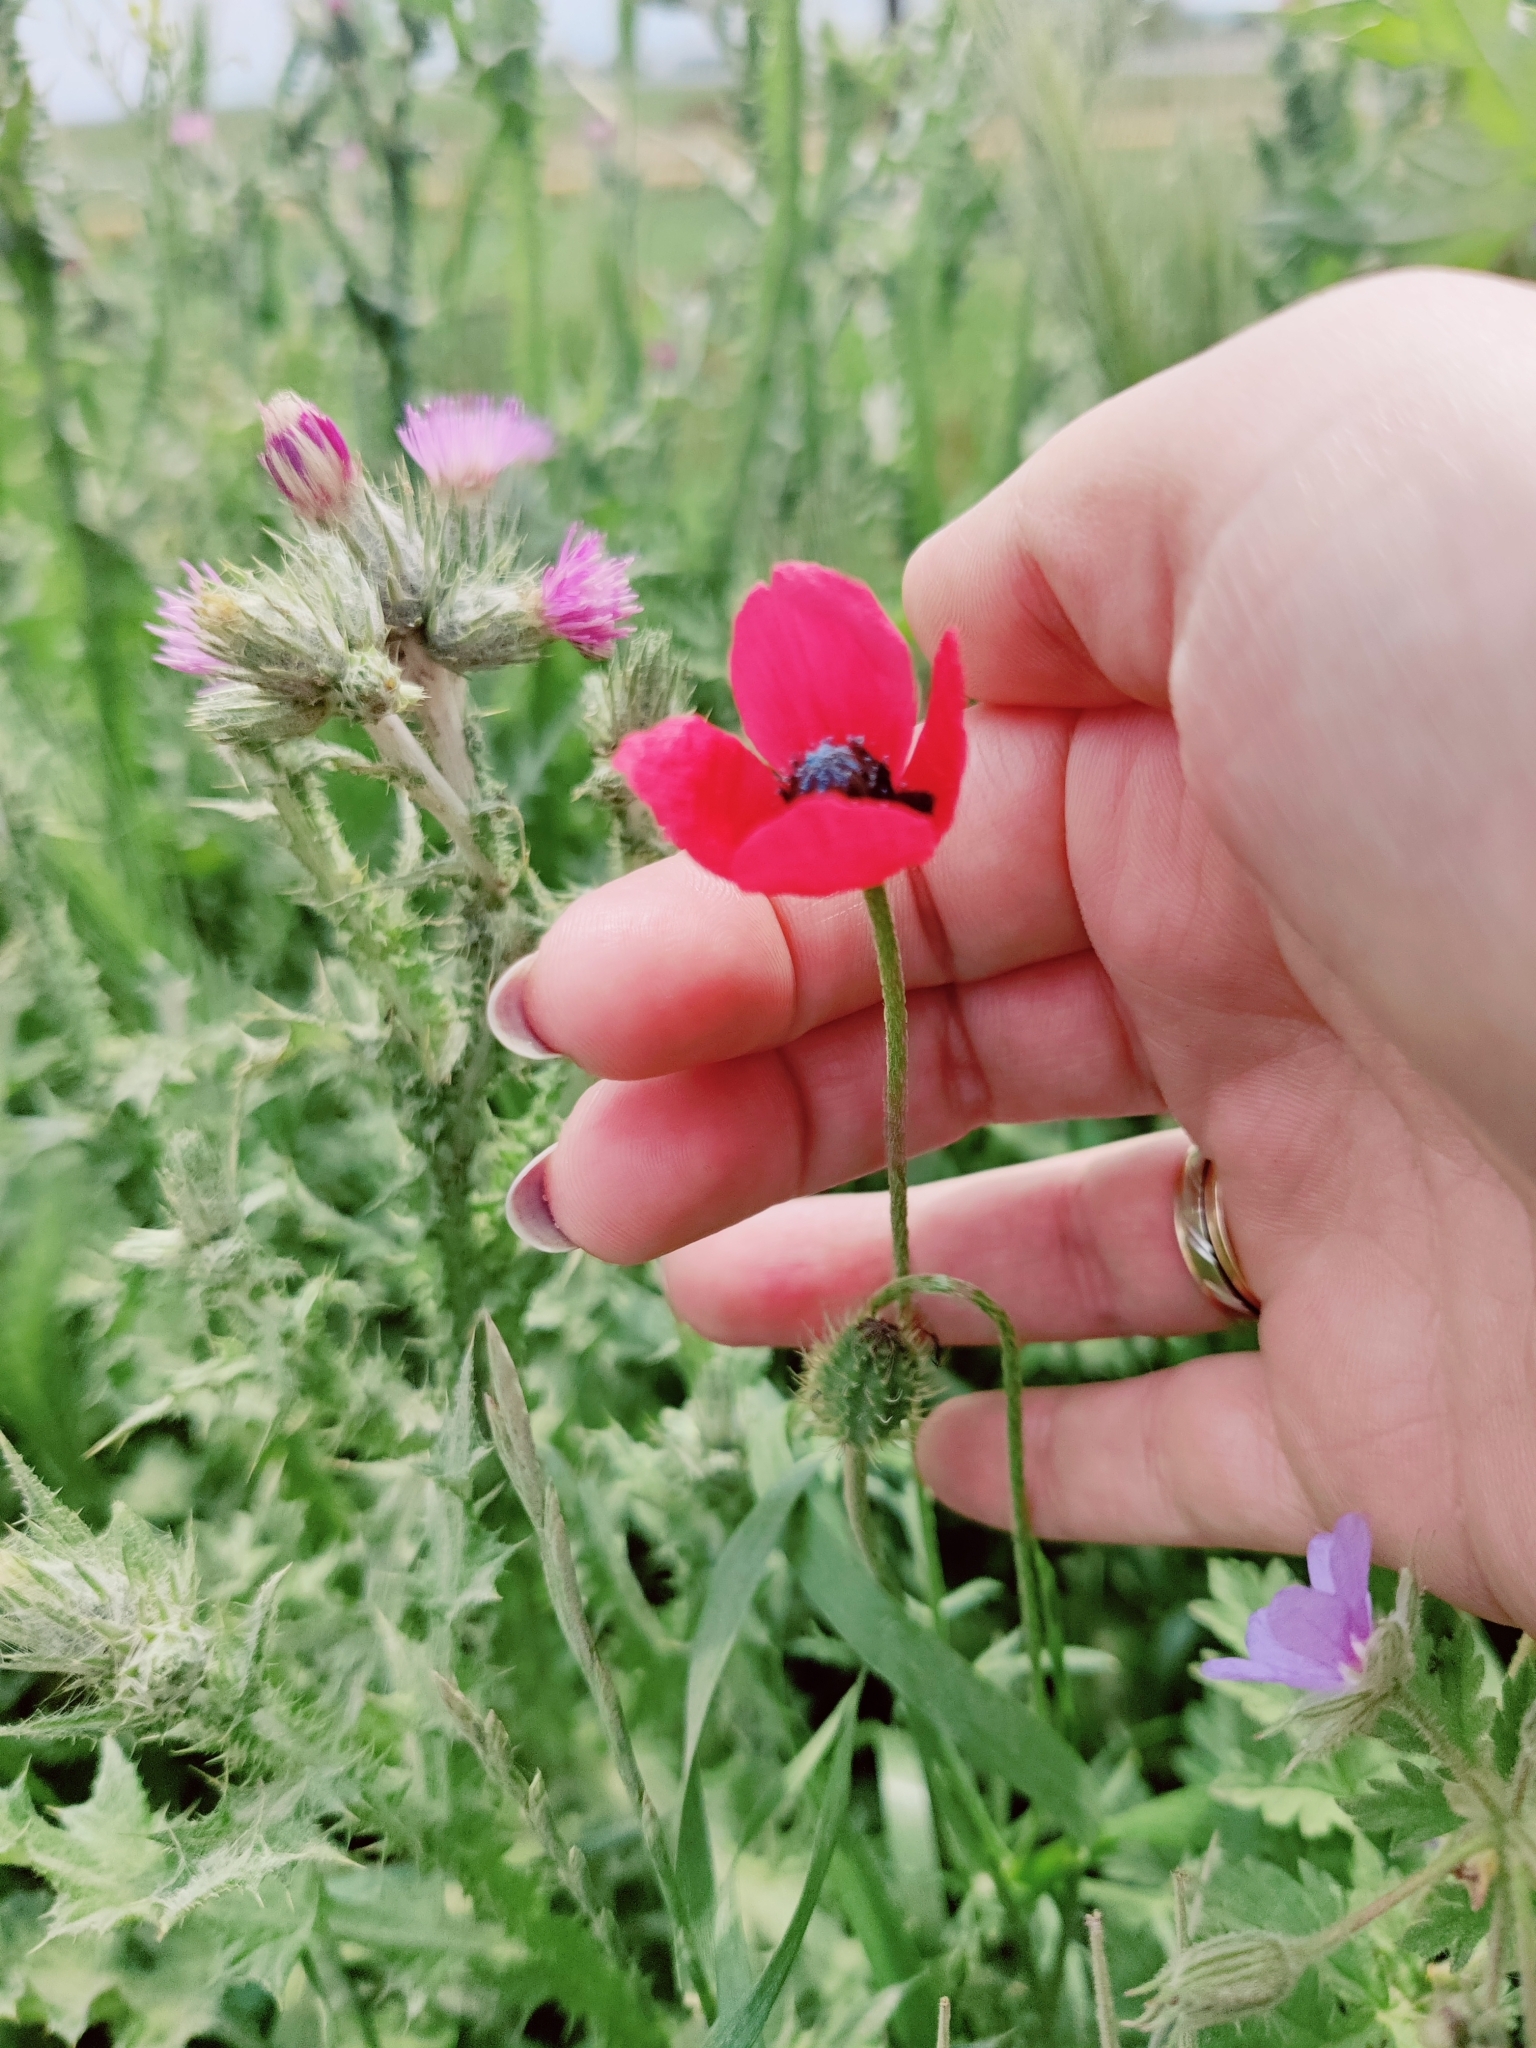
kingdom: Plantae
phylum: Tracheophyta
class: Magnoliopsida
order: Ranunculales
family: Papaveraceae
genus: Roemeria
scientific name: Roemeria hispida
